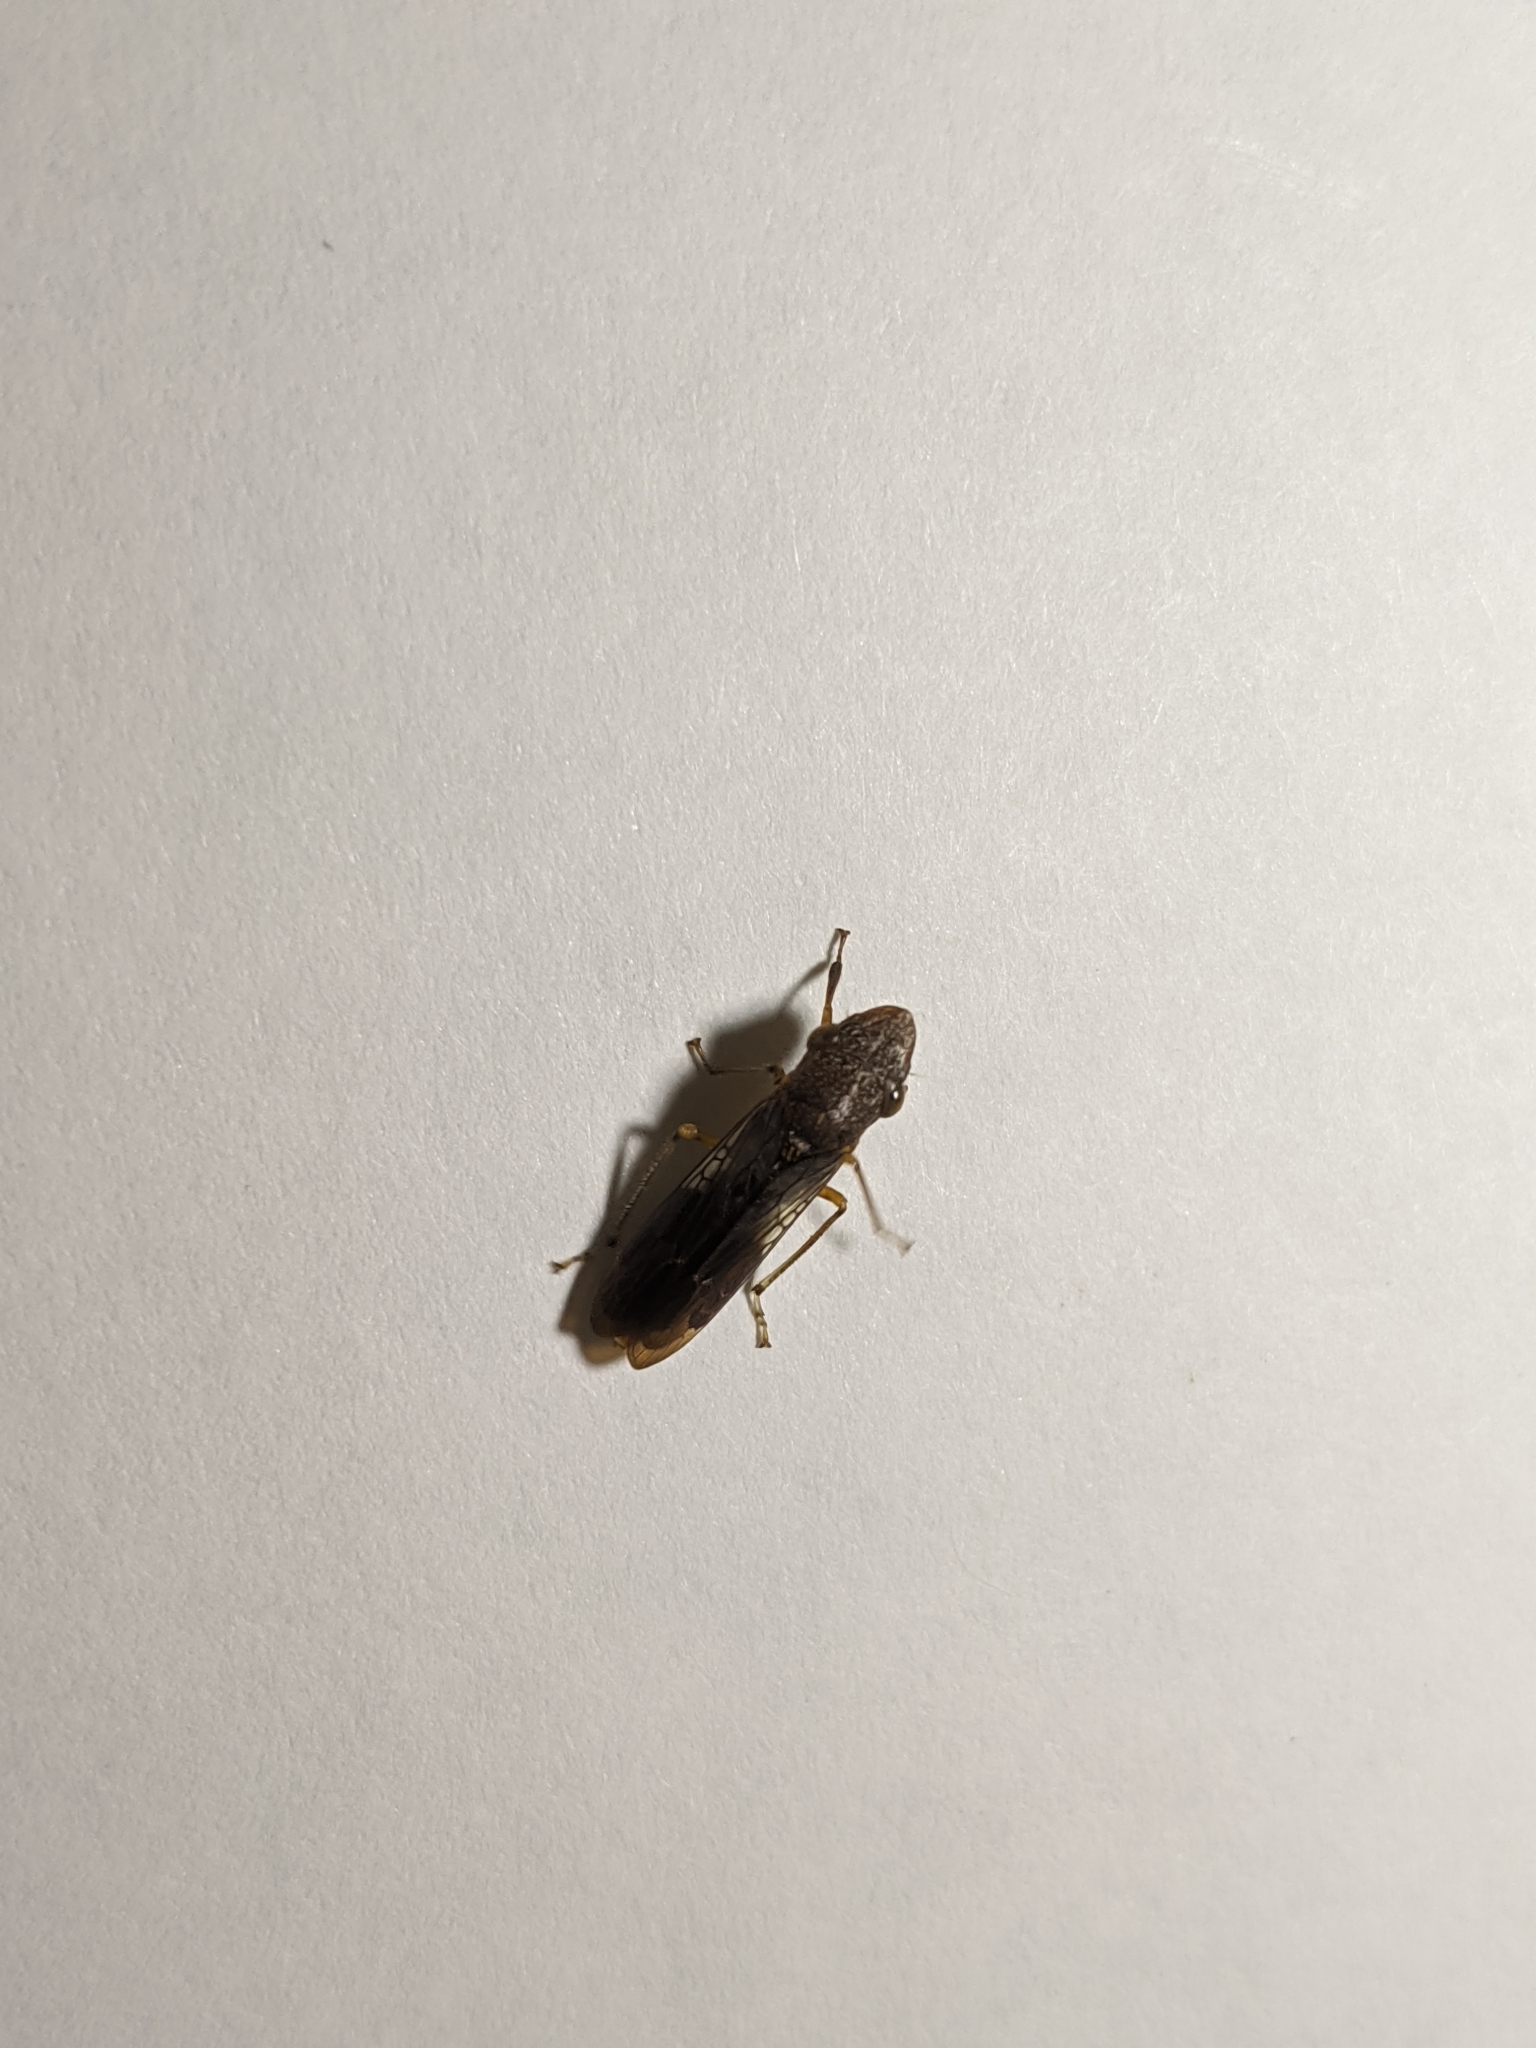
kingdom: Animalia
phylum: Arthropoda
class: Insecta
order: Hemiptera
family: Cicadellidae
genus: Homalodisca
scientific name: Homalodisca vitripennis
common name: Glassy-winged sharpshooter
